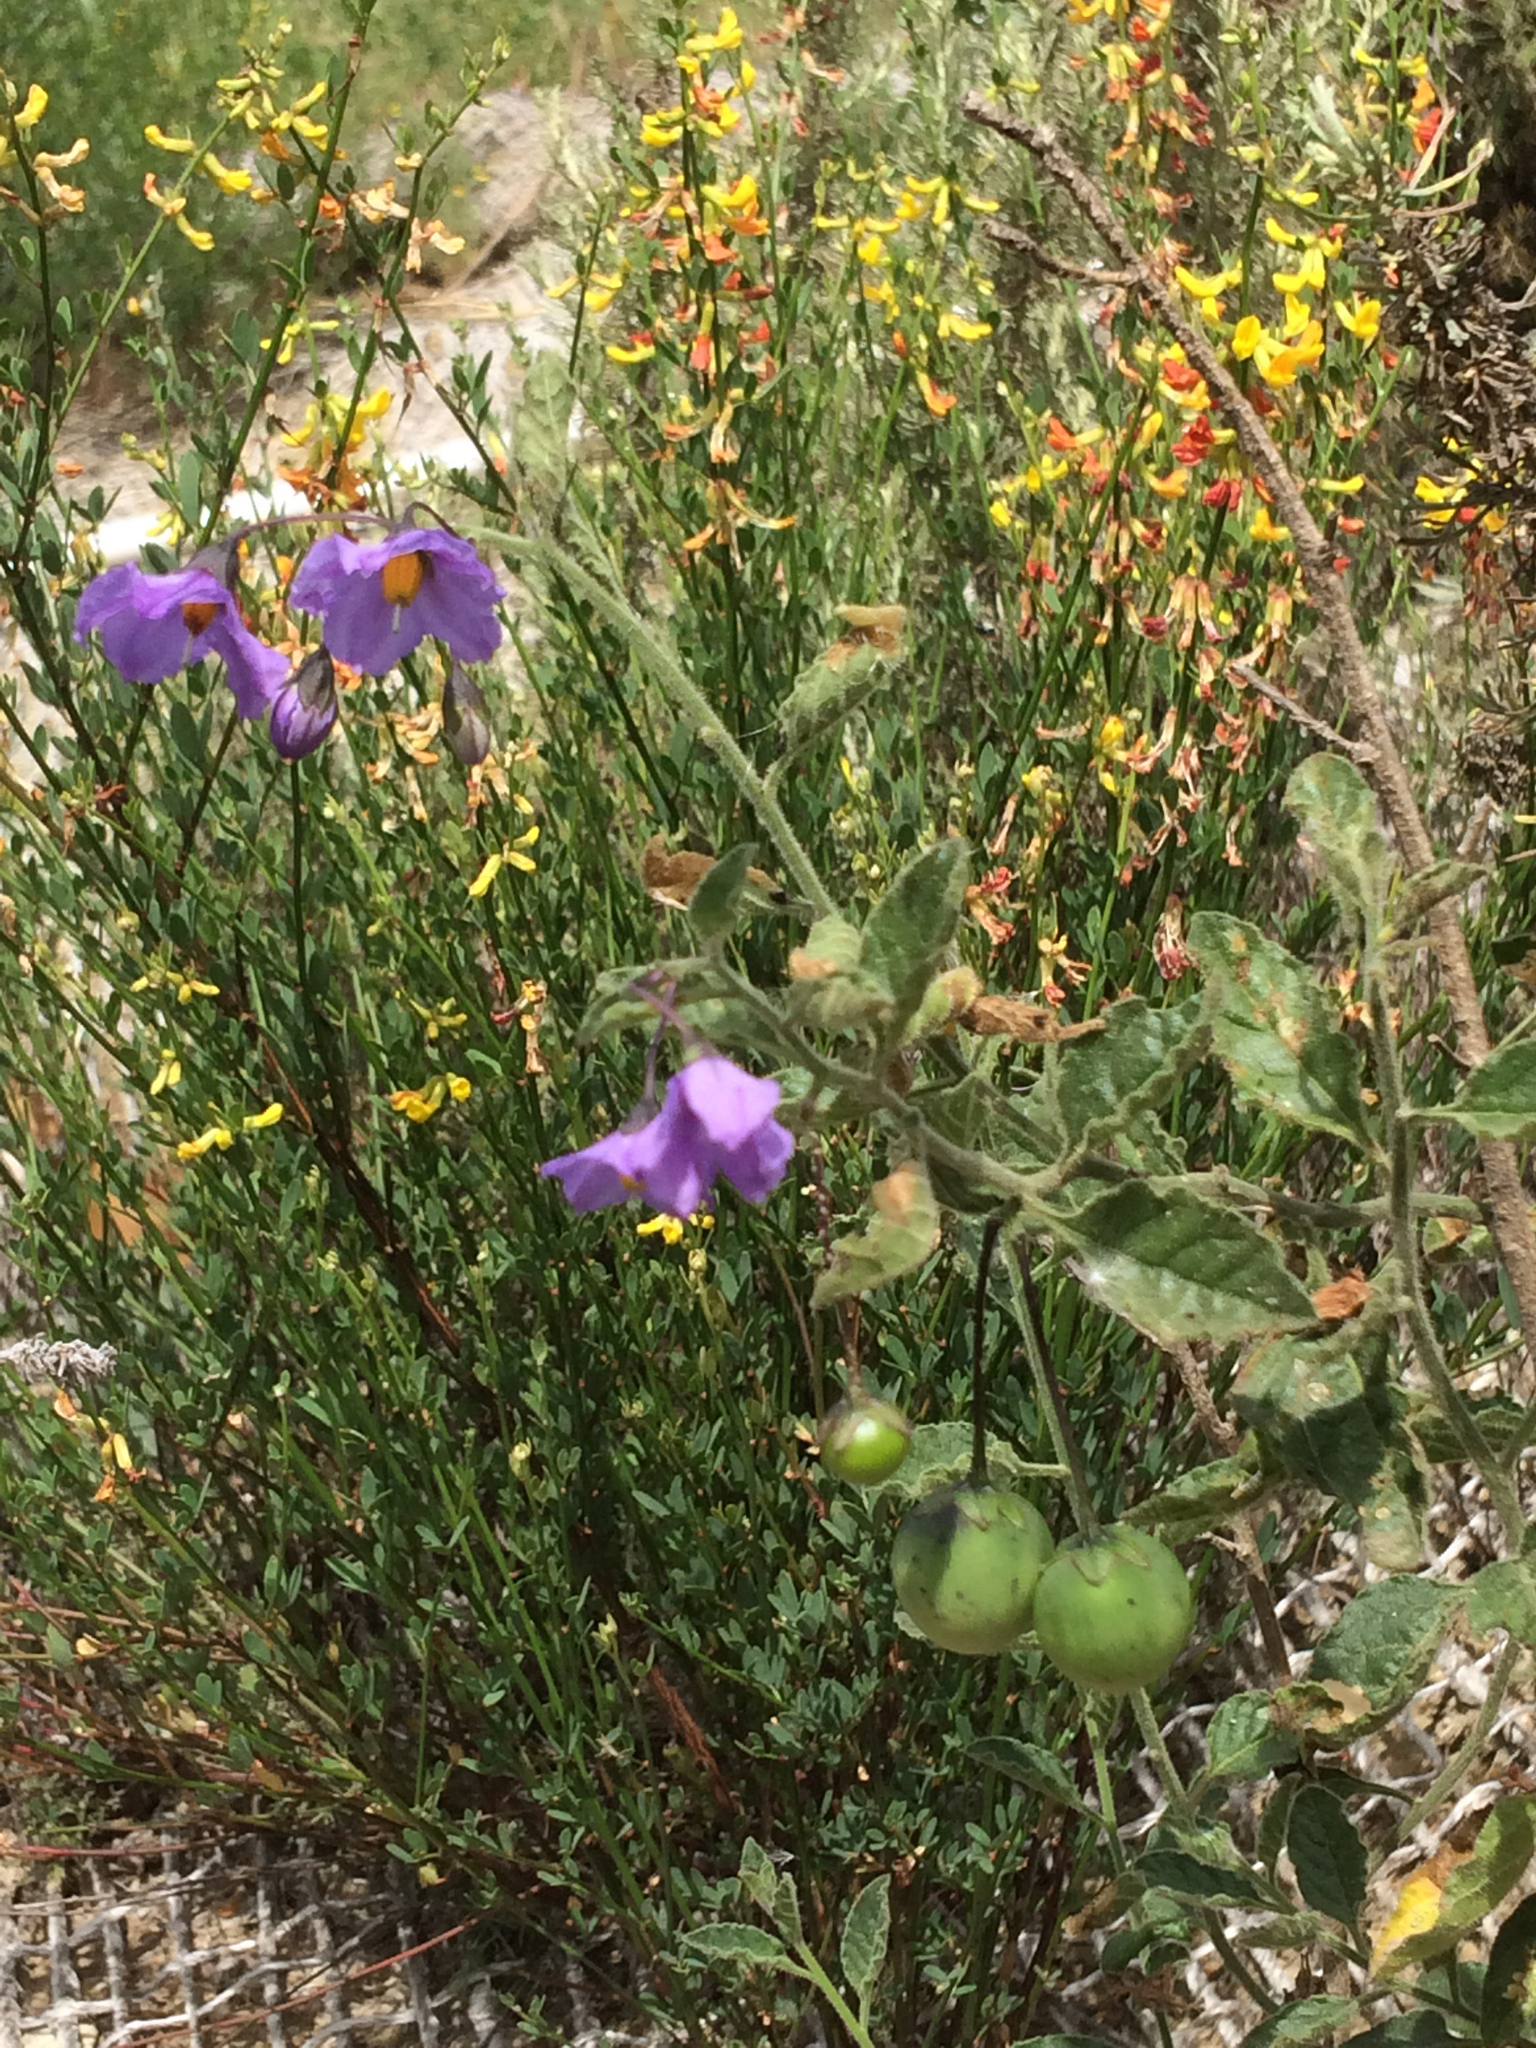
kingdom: Plantae
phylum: Tracheophyta
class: Magnoliopsida
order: Solanales
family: Solanaceae
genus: Solanum
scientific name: Solanum umbelliferum
